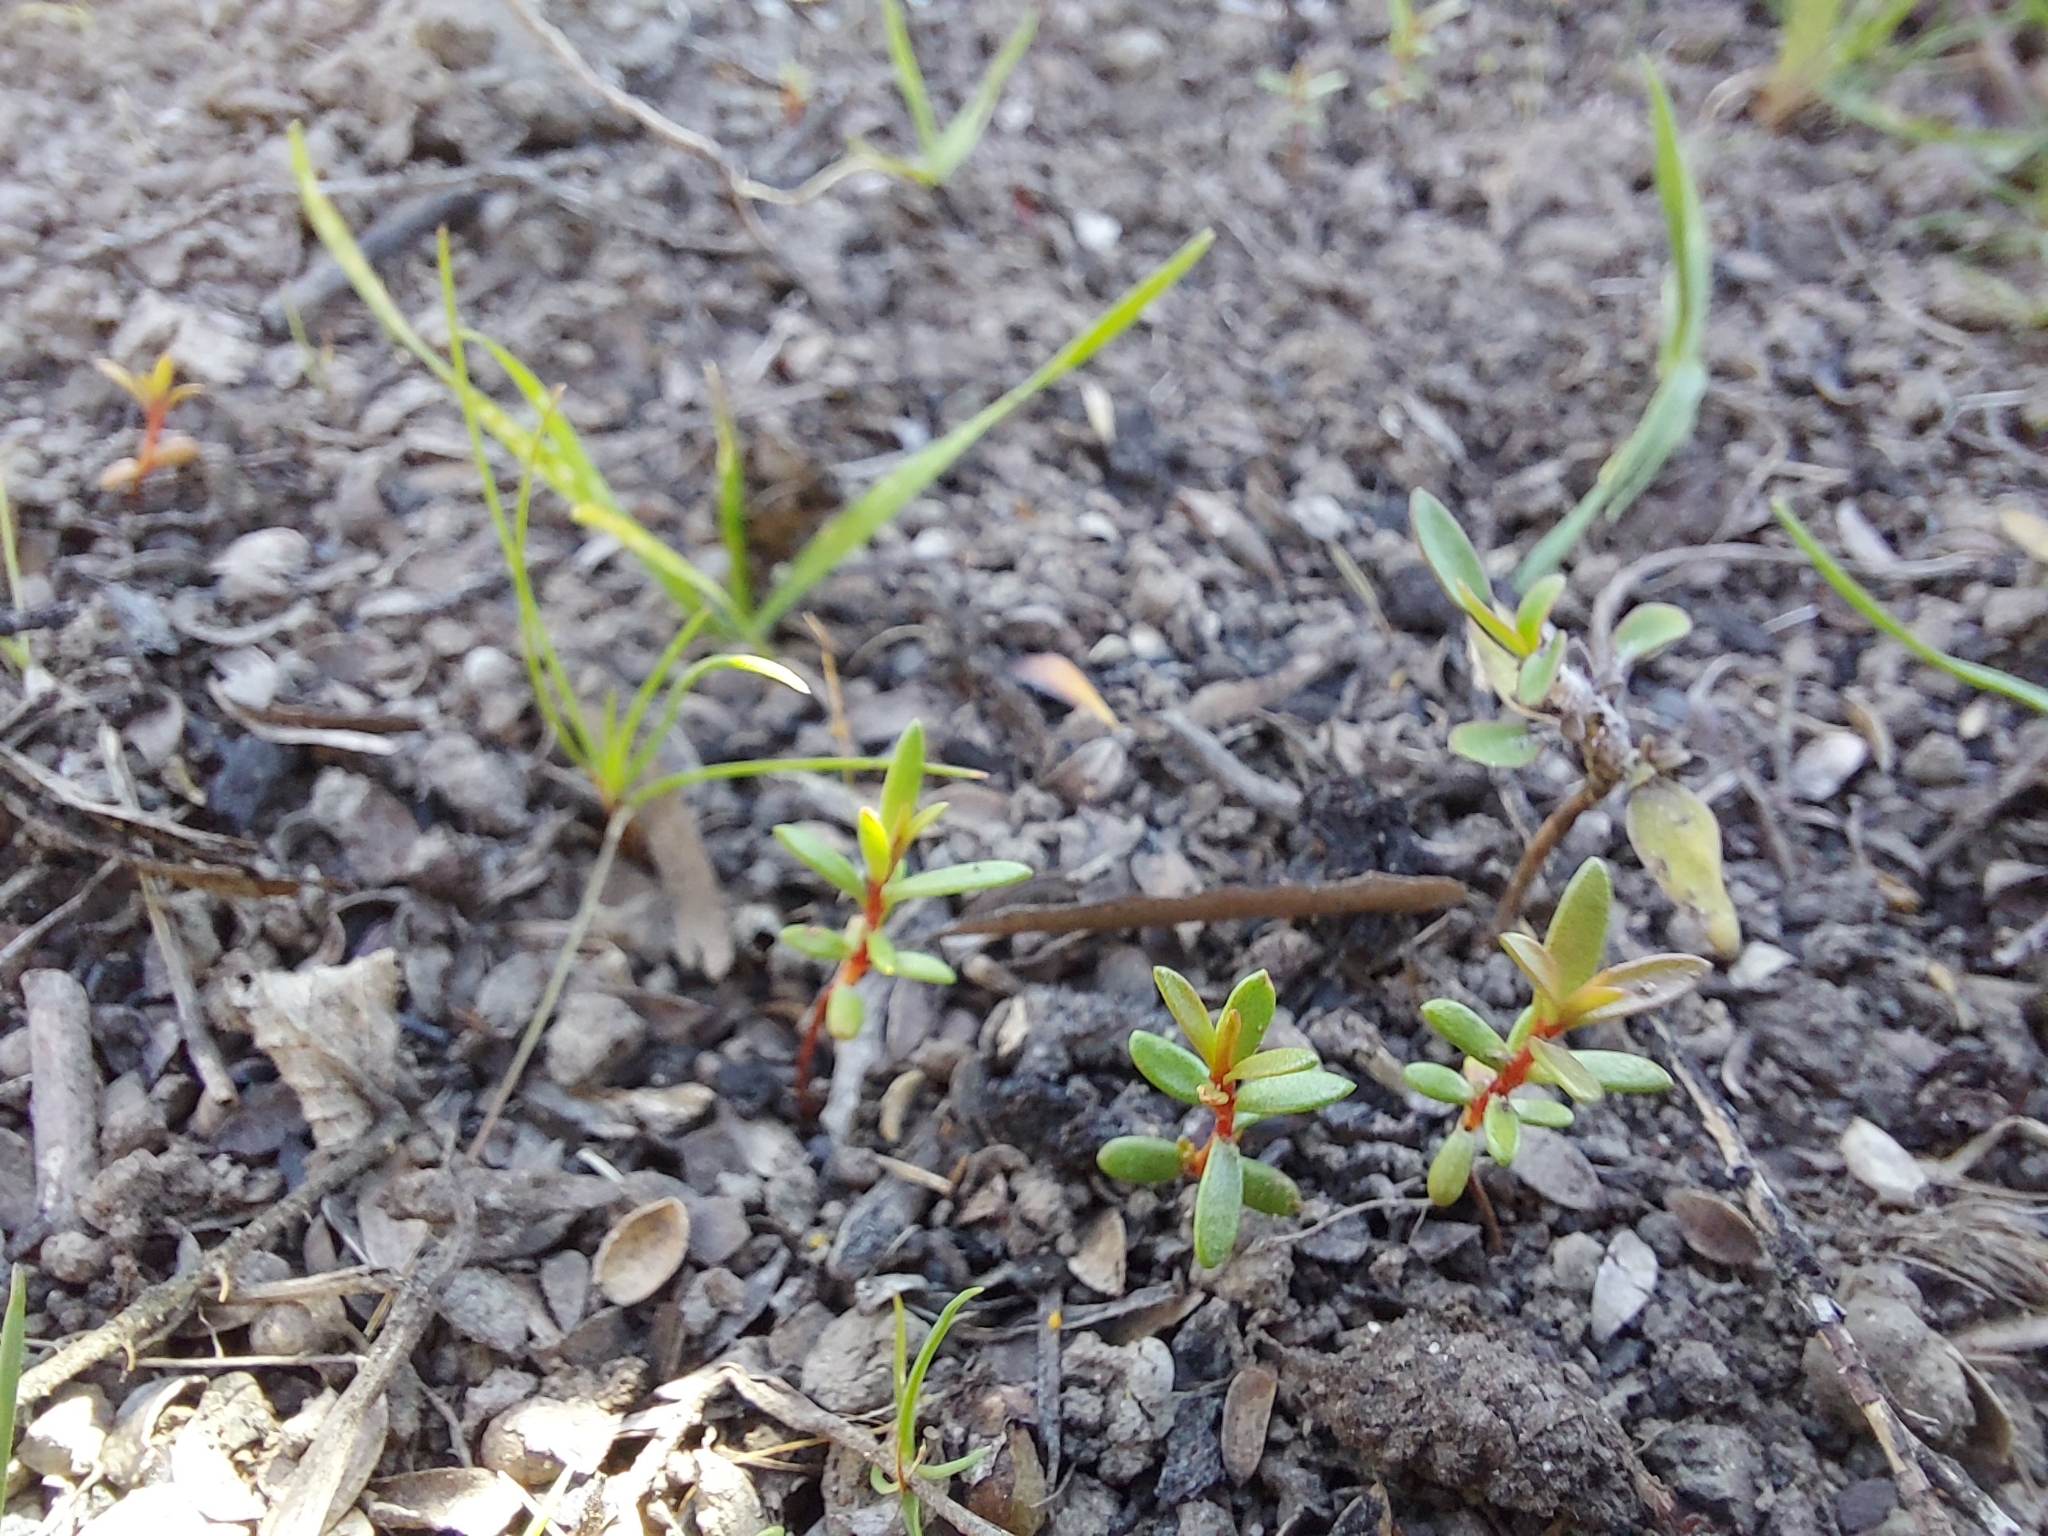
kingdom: Plantae
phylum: Tracheophyta
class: Magnoliopsida
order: Myrtales
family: Myrtaceae
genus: Leptospermum
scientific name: Leptospermum scoparium
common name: Broom tea-tree
